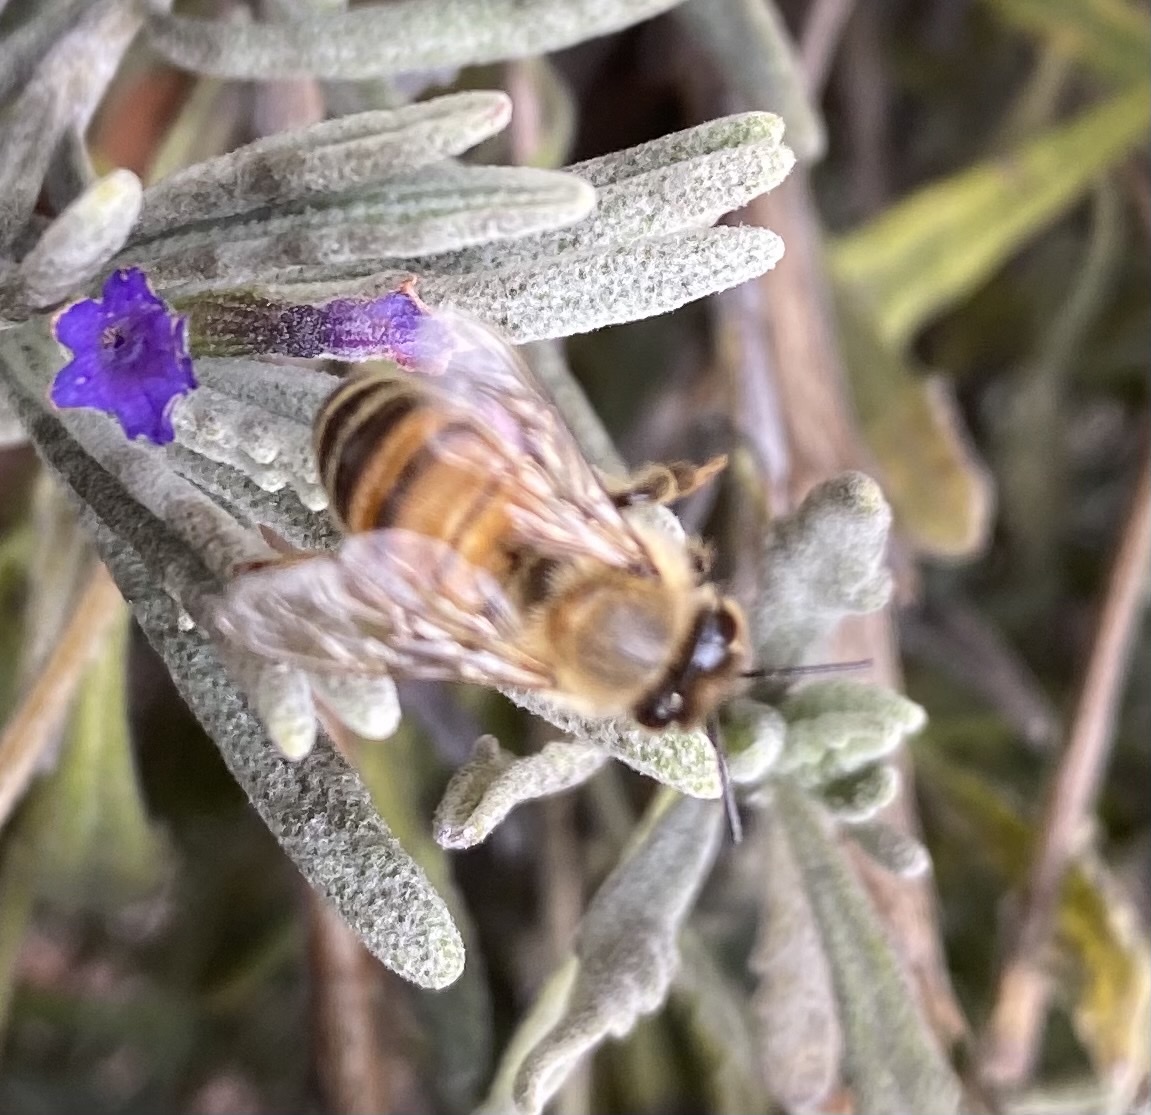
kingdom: Animalia
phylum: Arthropoda
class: Insecta
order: Hymenoptera
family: Apidae
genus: Apis
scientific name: Apis mellifera
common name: Honey bee
